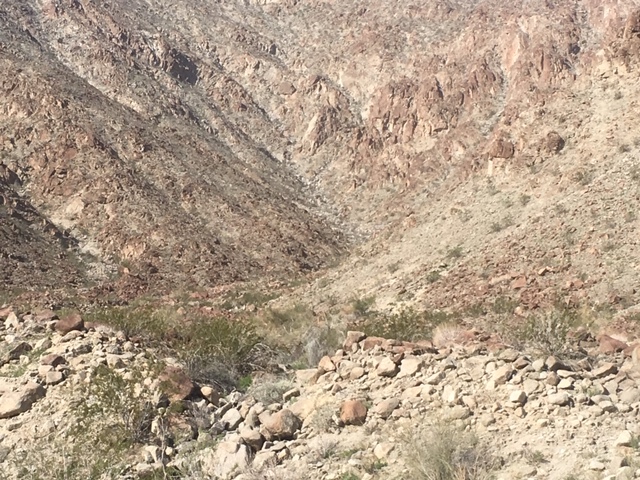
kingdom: Animalia
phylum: Chordata
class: Mammalia
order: Artiodactyla
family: Bovidae
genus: Ovis
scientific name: Ovis canadensis
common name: Bighorn sheep
